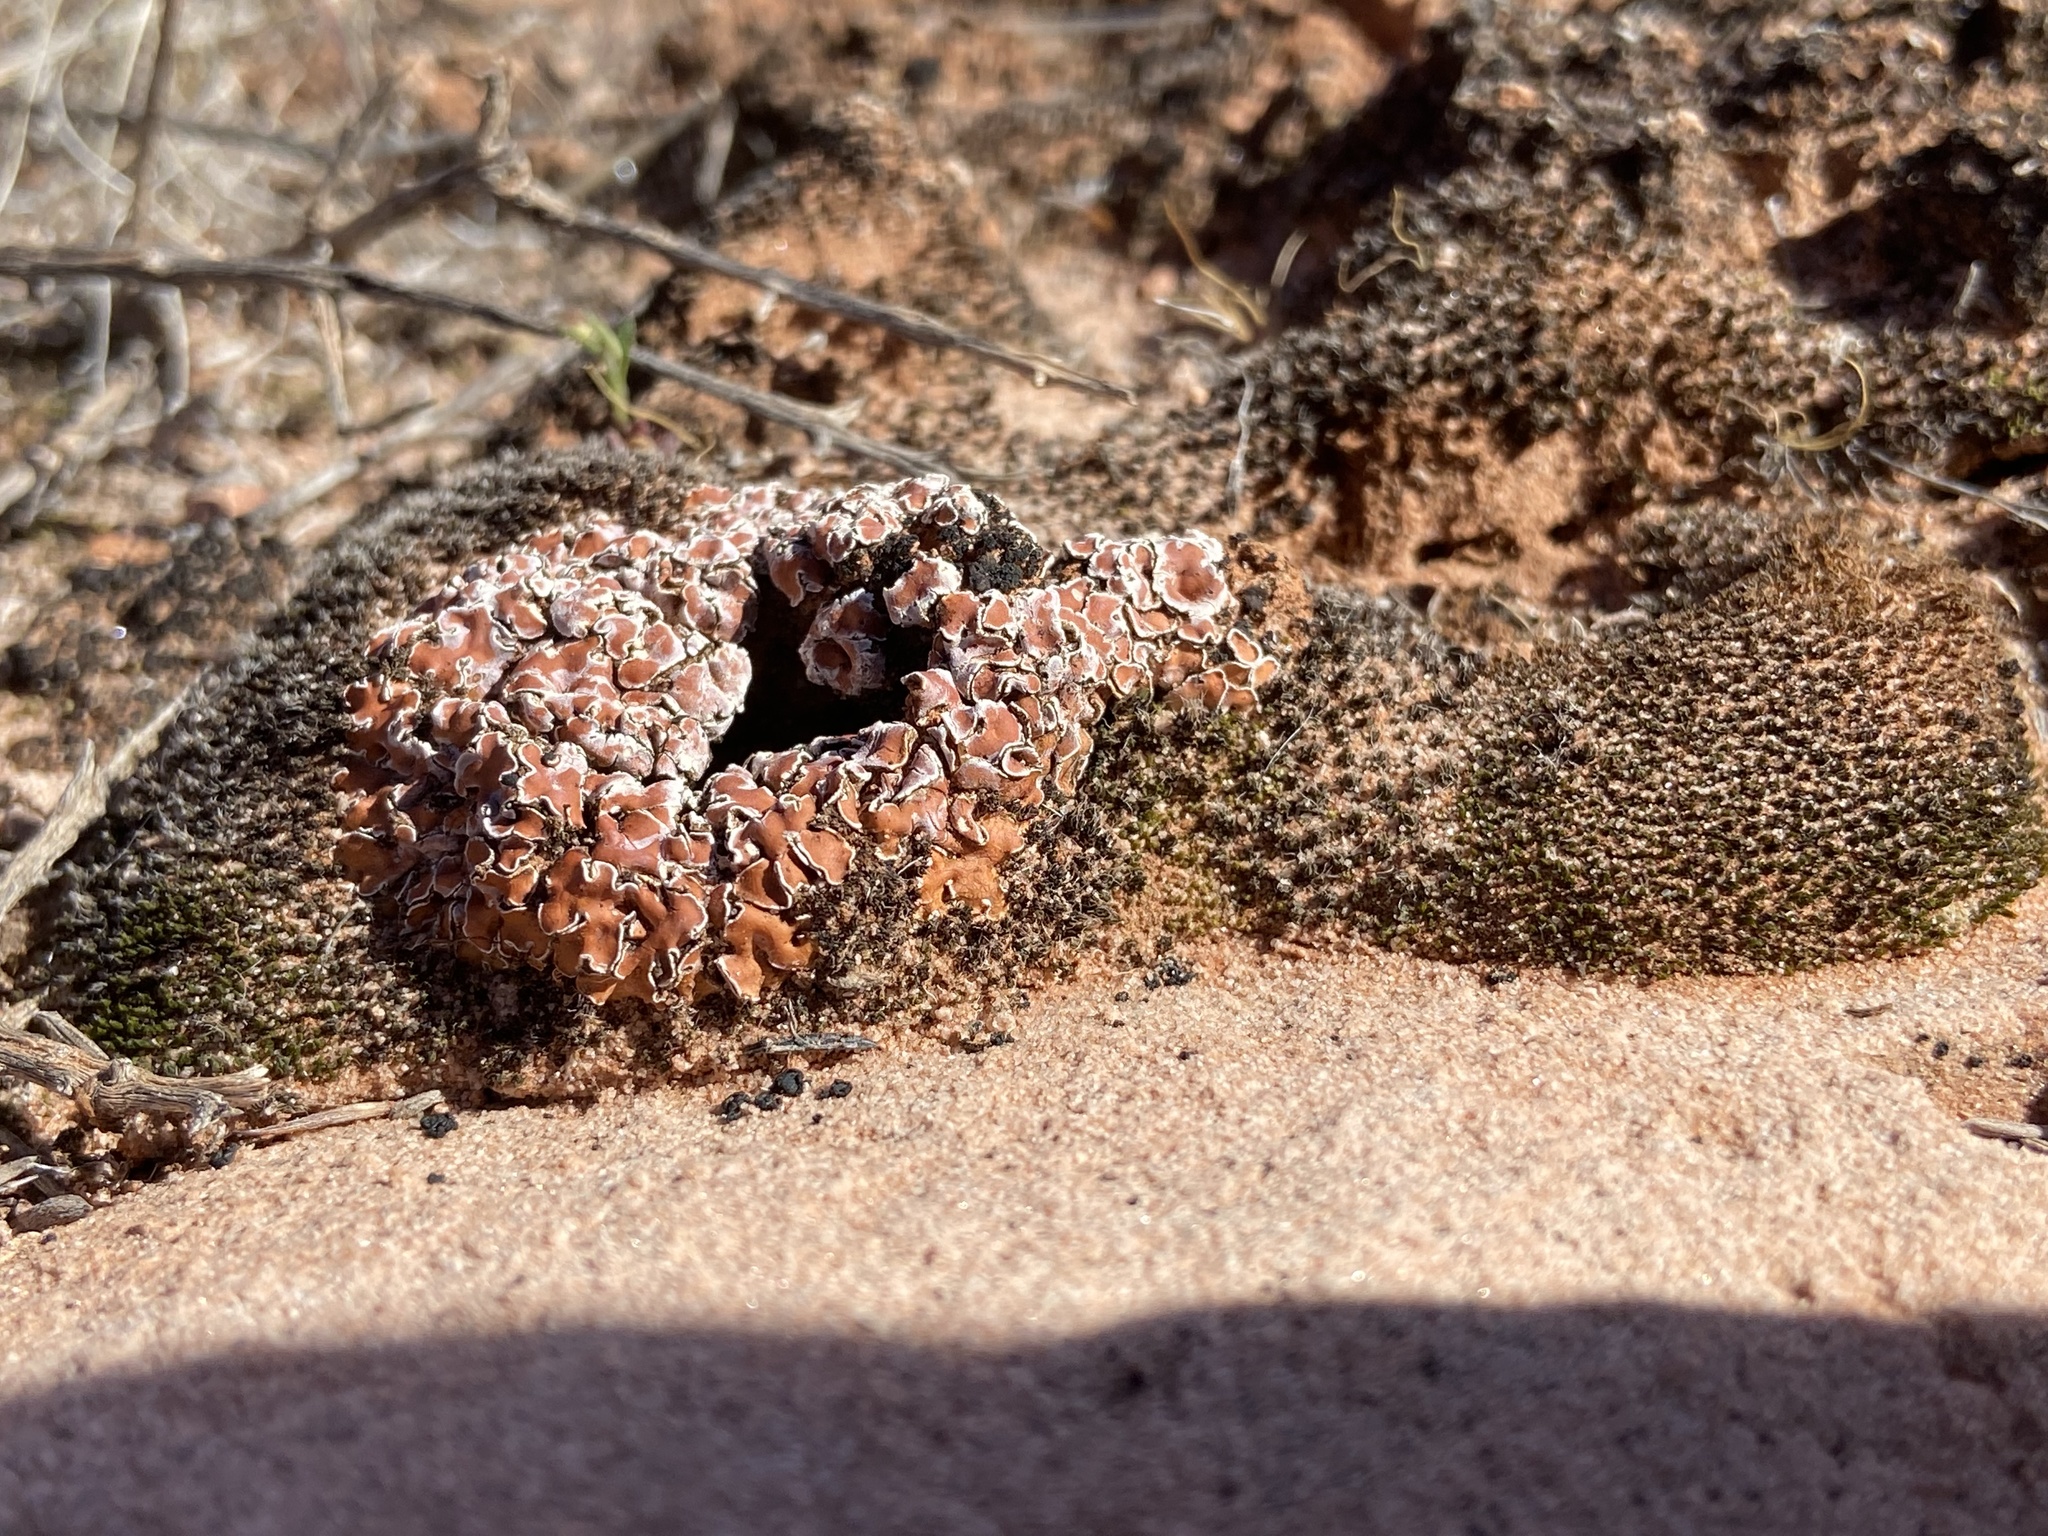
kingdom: Fungi
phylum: Ascomycota
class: Lecanoromycetes
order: Lecanorales
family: Psoraceae
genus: Psora
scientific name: Psora decipiens
